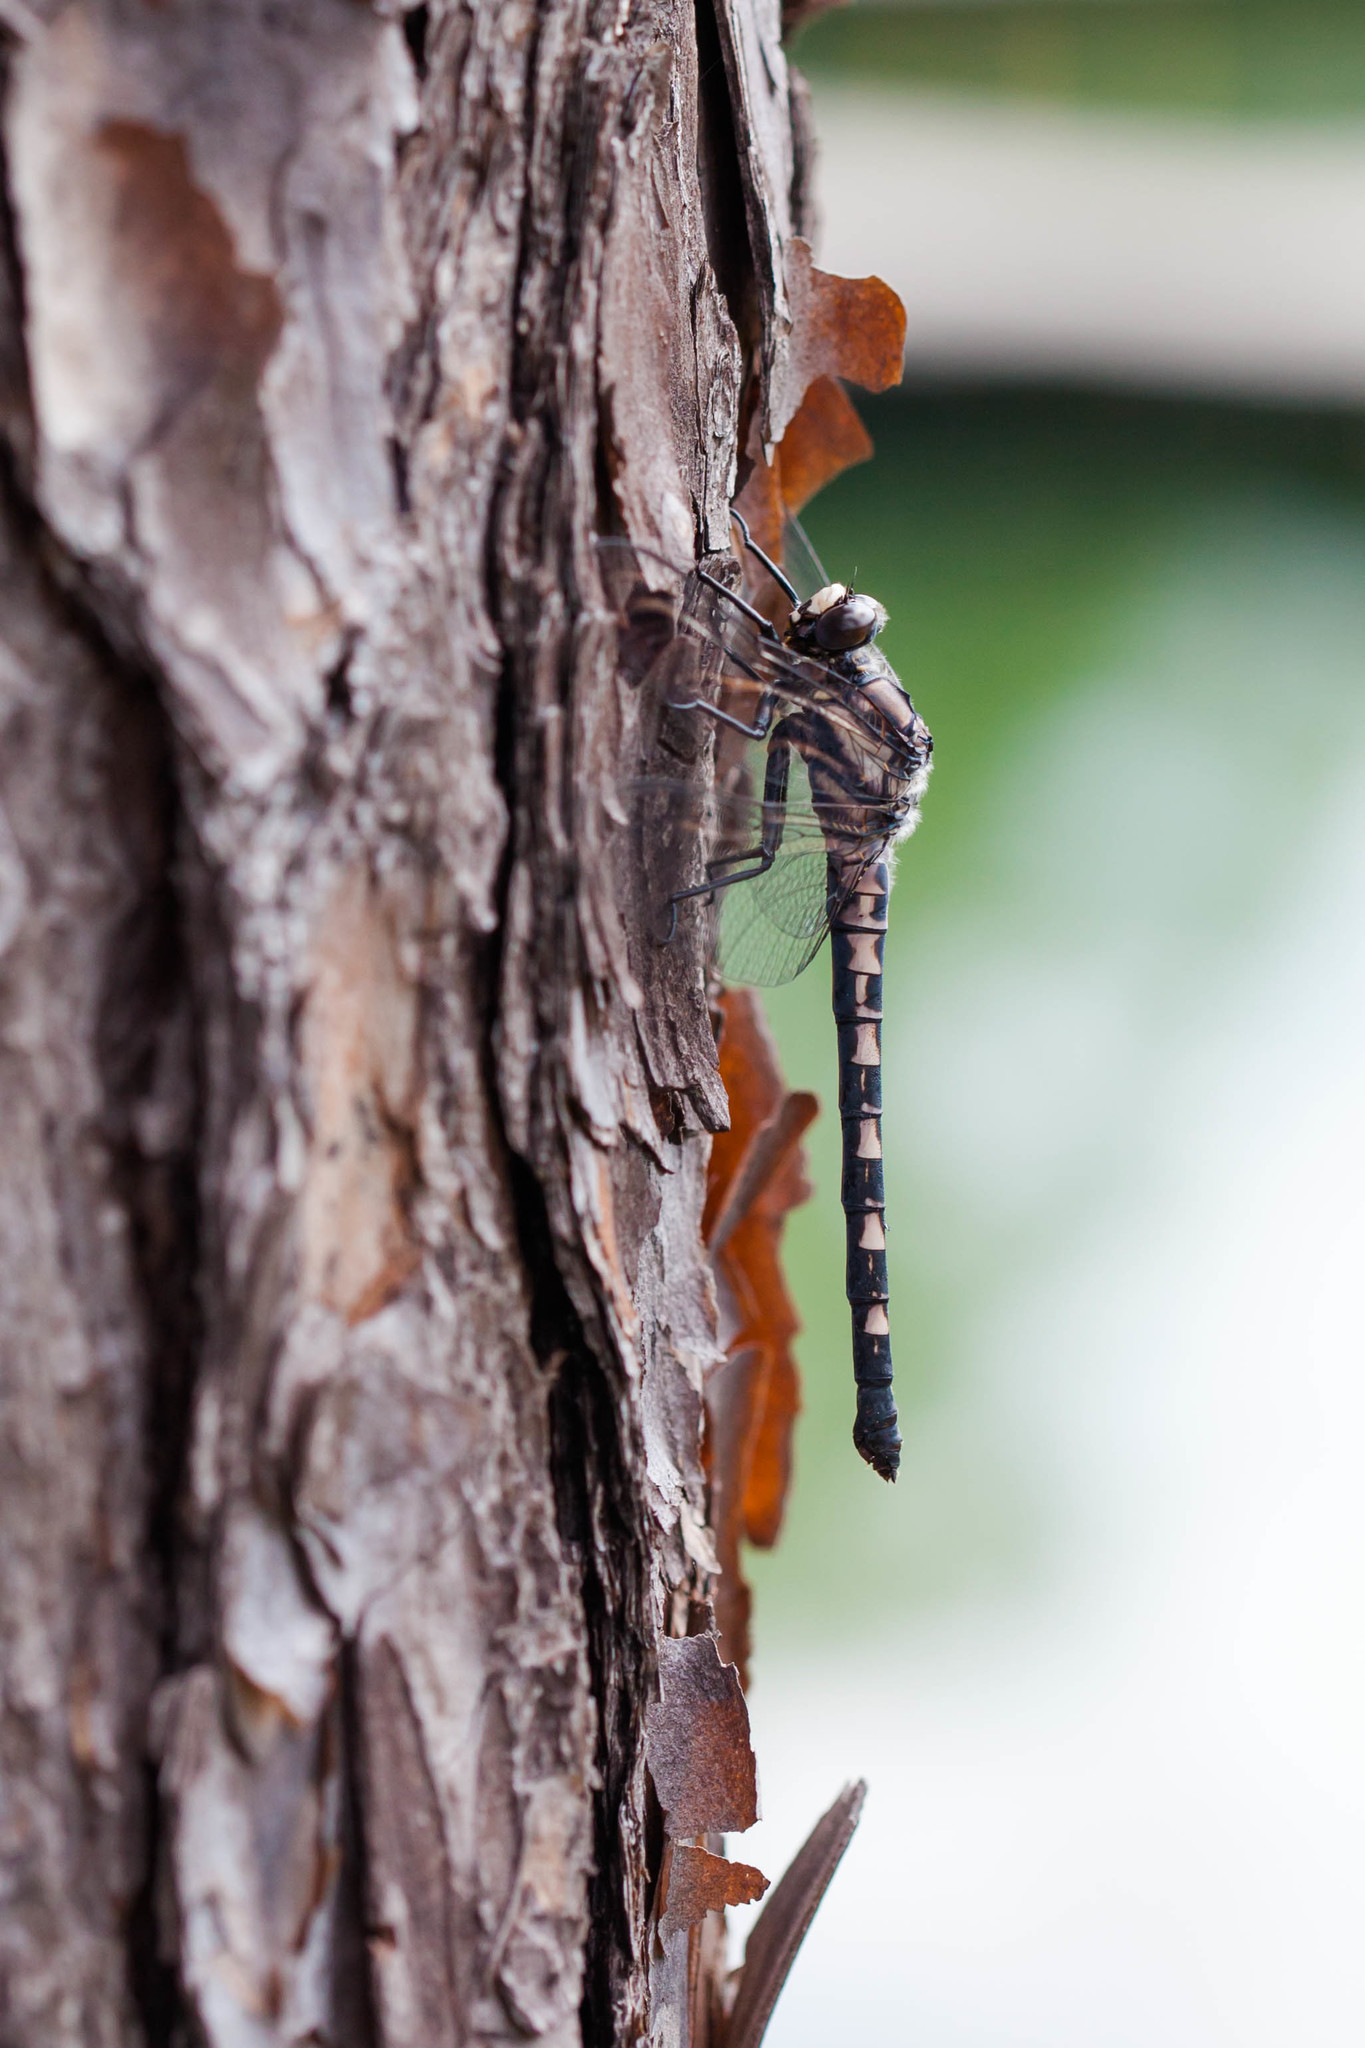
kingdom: Animalia
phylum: Arthropoda
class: Insecta
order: Odonata
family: Petaluridae
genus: Tachopteryx
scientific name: Tachopteryx thoreyi
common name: Gray petaltail
